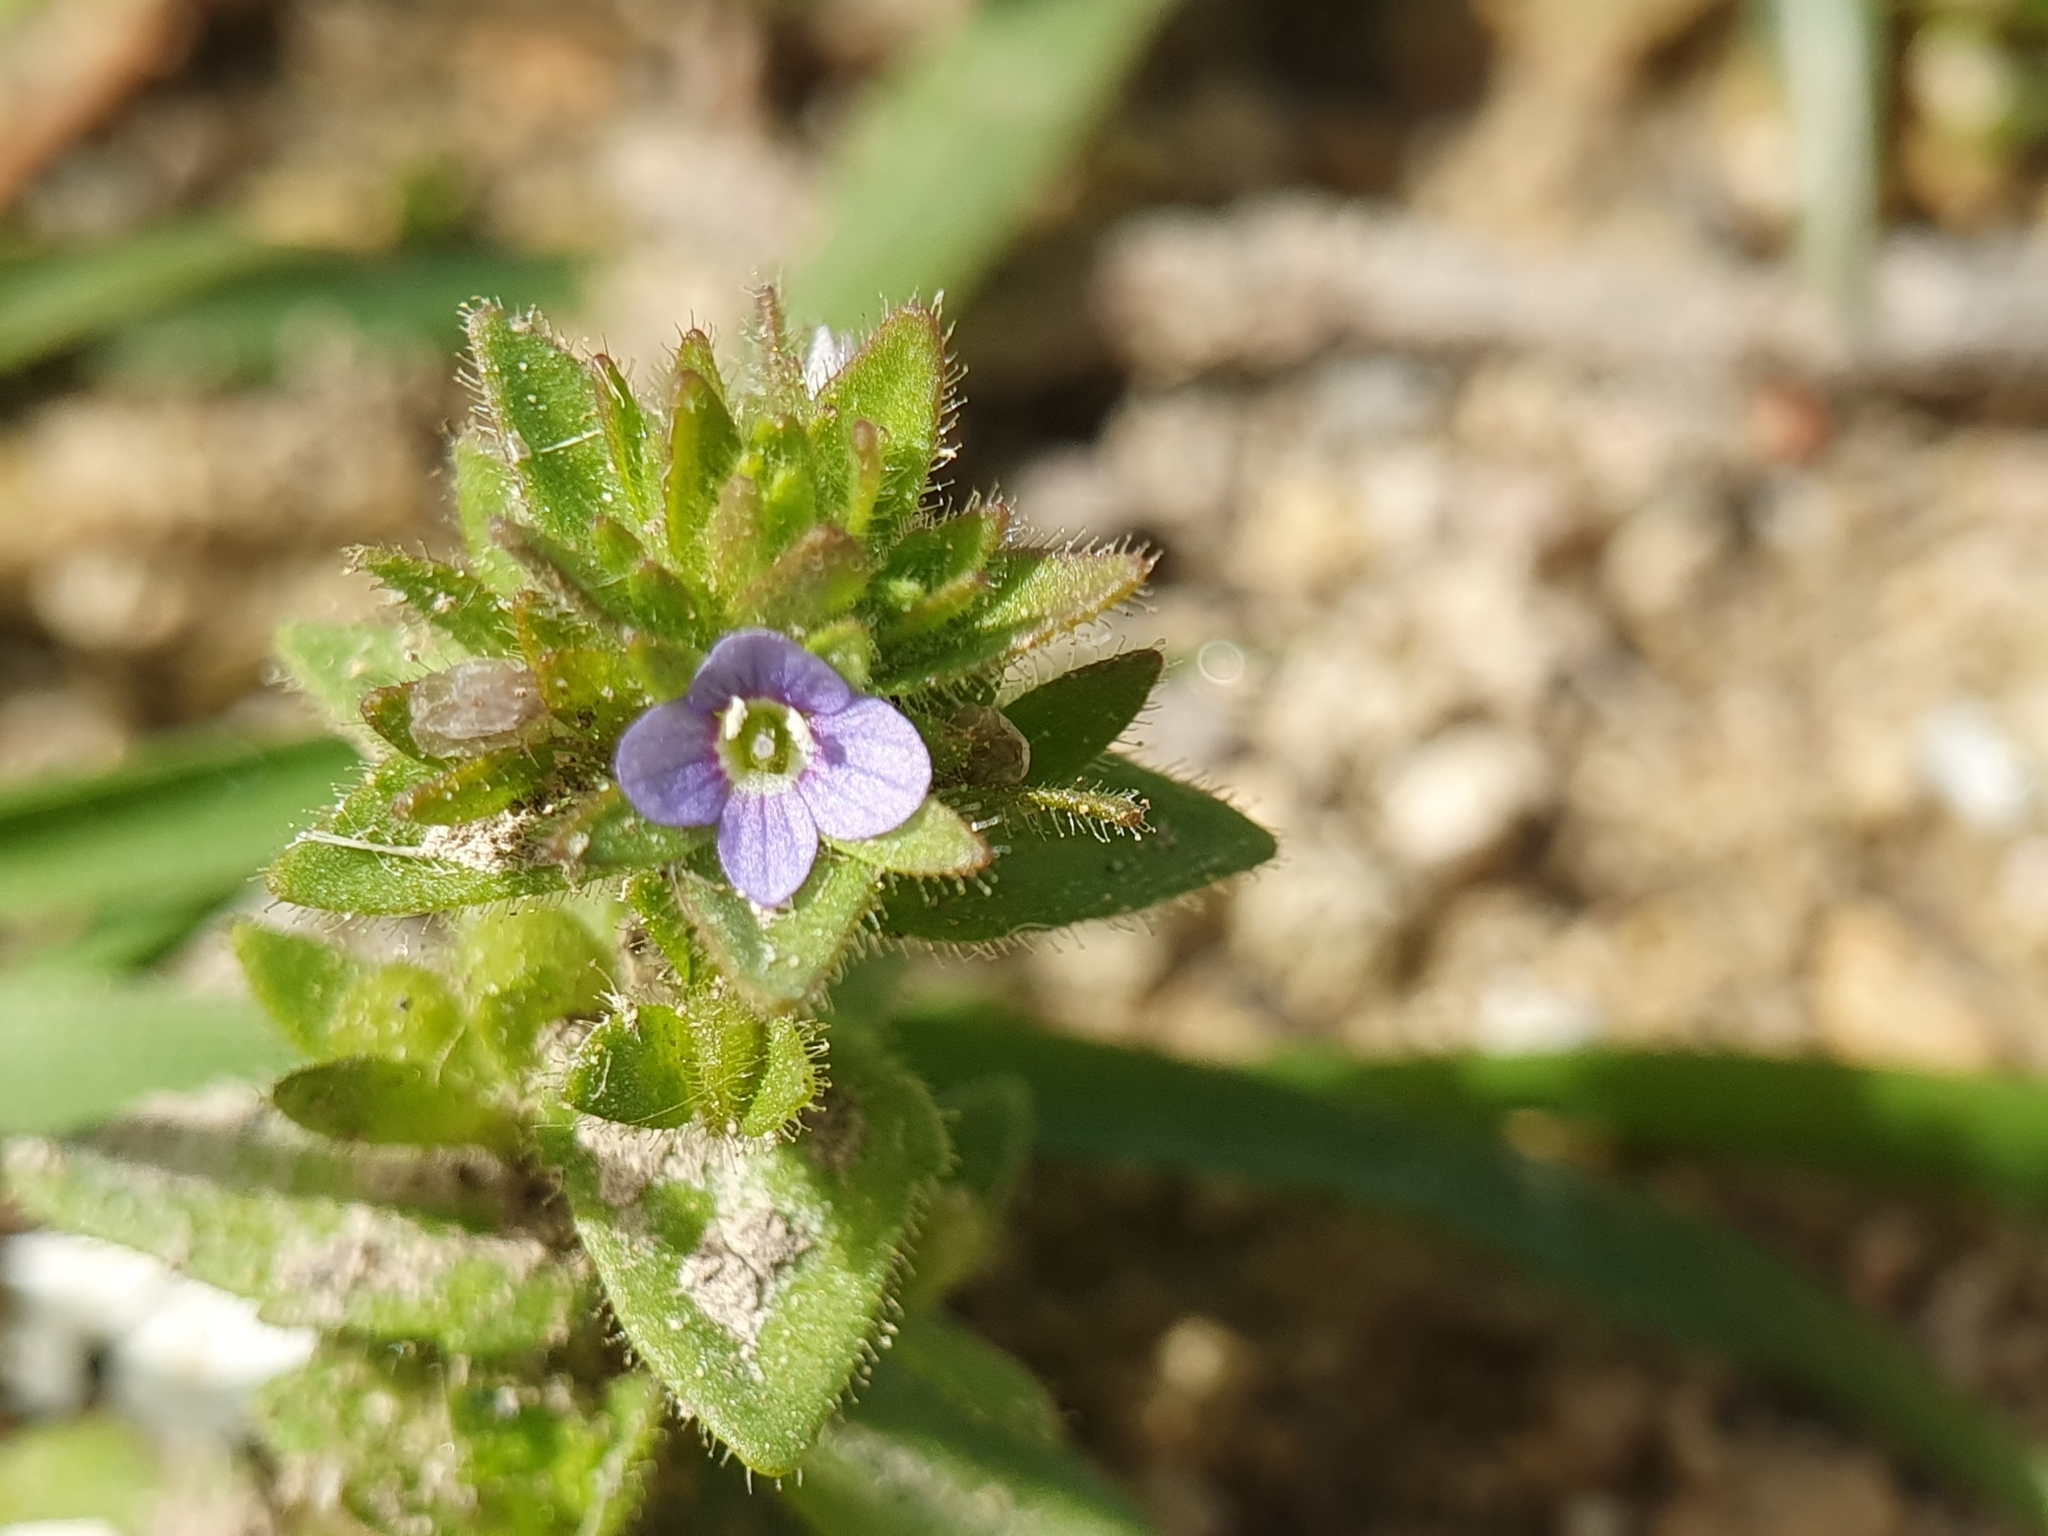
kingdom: Plantae
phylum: Tracheophyta
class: Magnoliopsida
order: Lamiales
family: Plantaginaceae
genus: Veronica
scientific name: Veronica arvensis
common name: Corn speedwell
